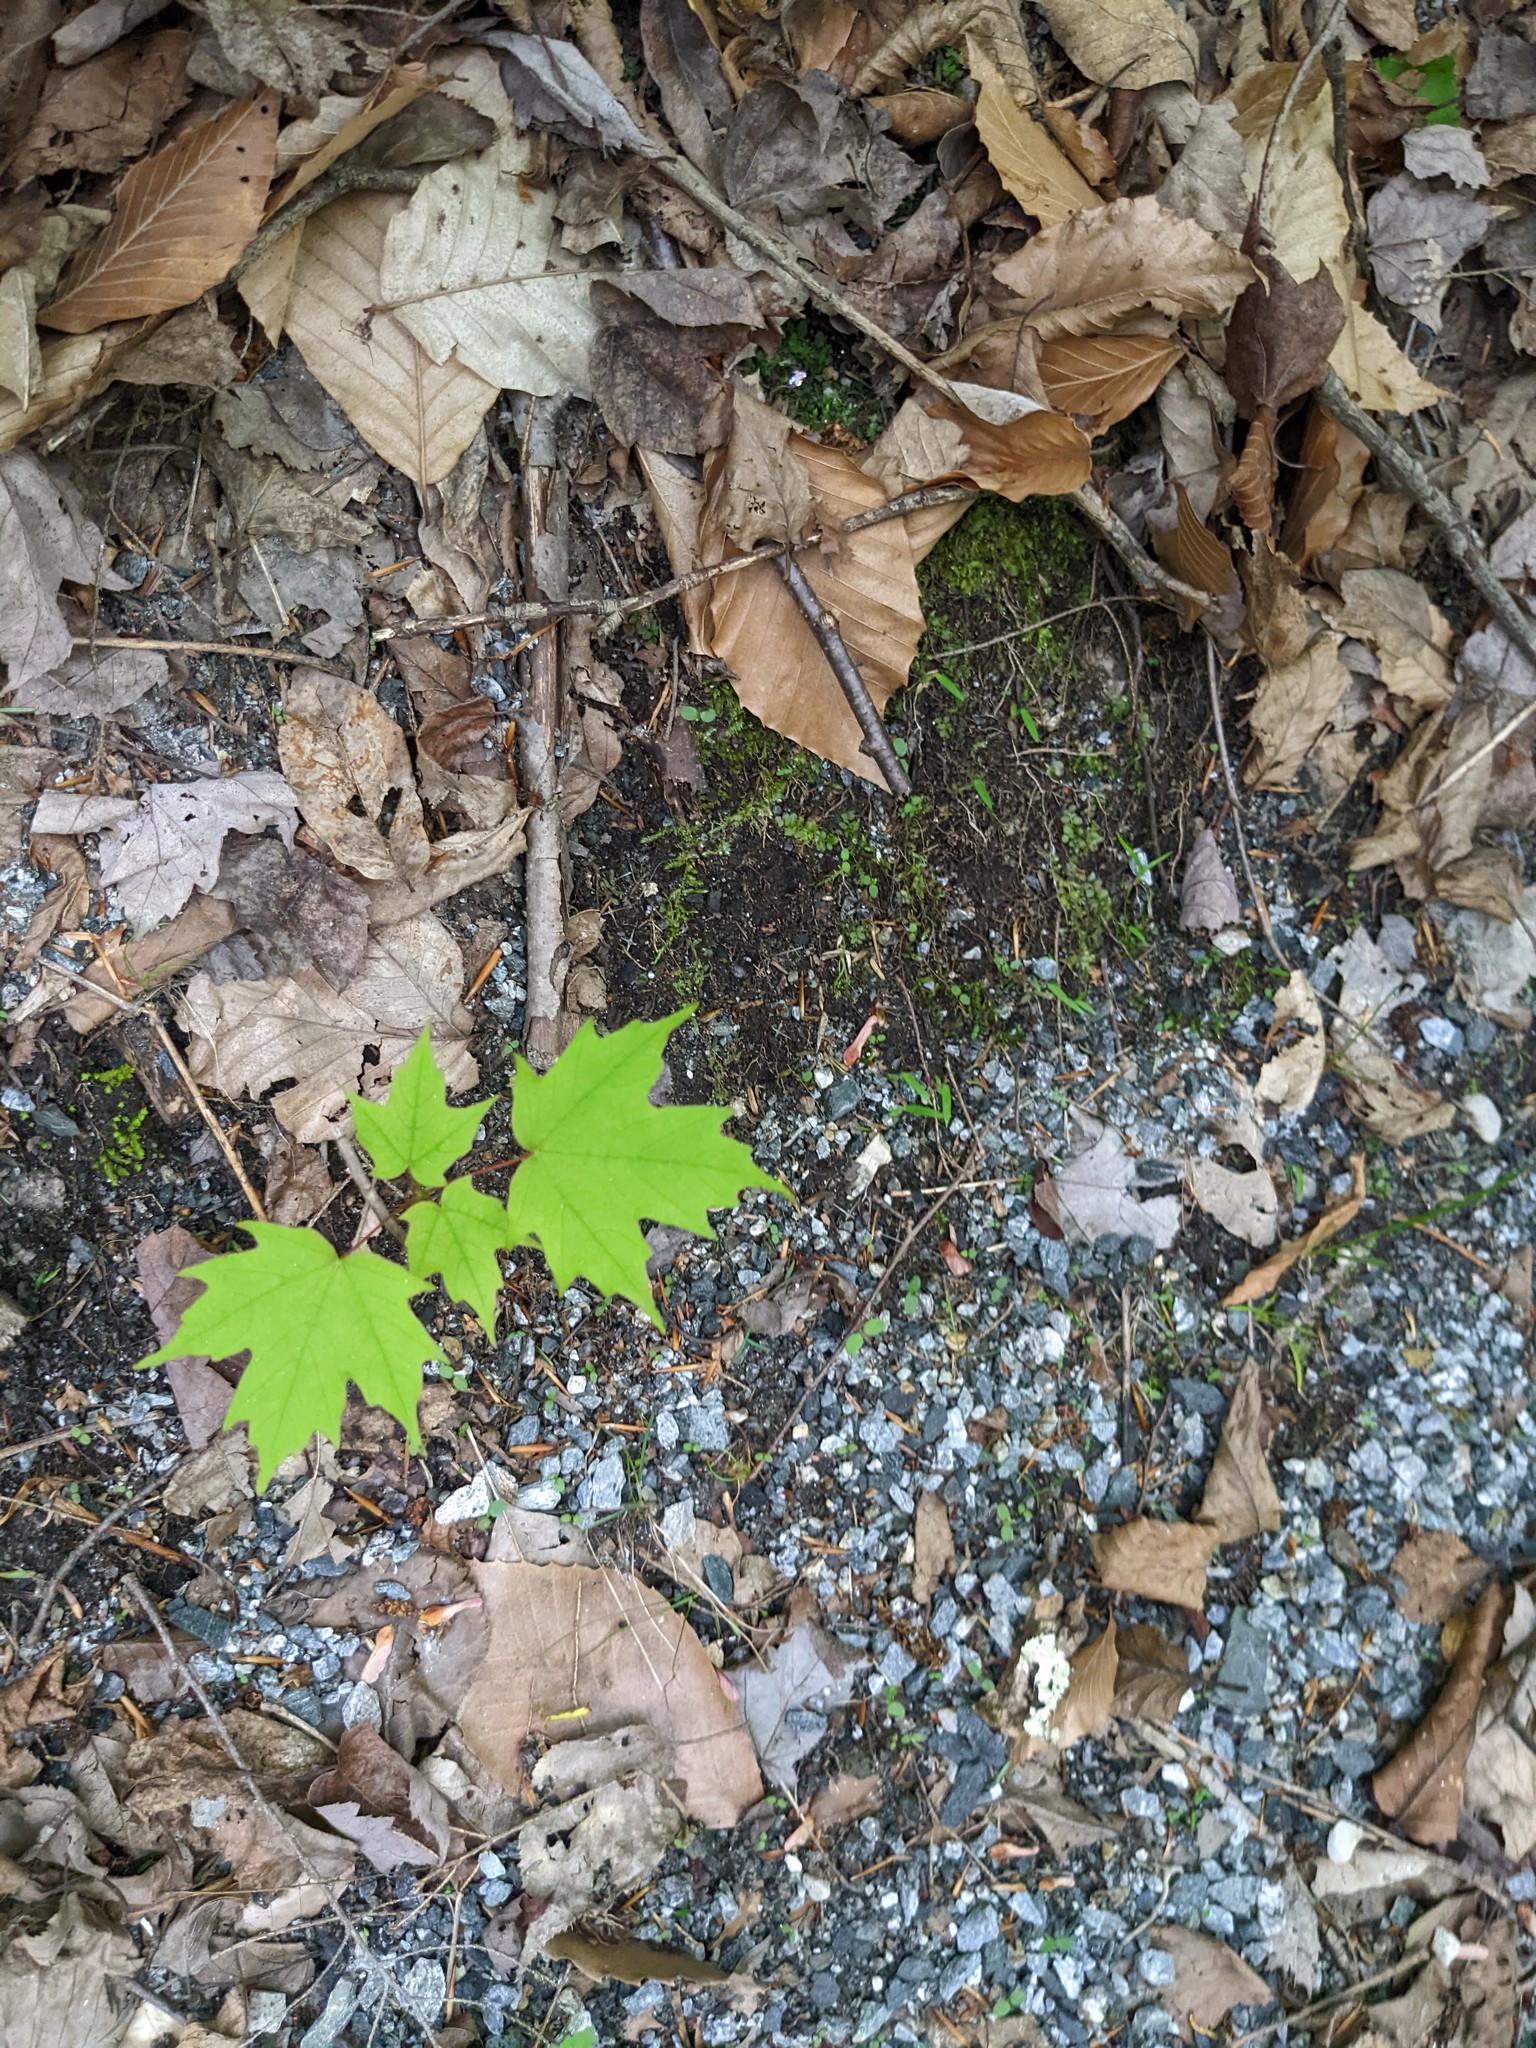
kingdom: Plantae
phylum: Tracheophyta
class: Magnoliopsida
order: Sapindales
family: Sapindaceae
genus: Acer
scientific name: Acer saccharum
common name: Sugar maple
